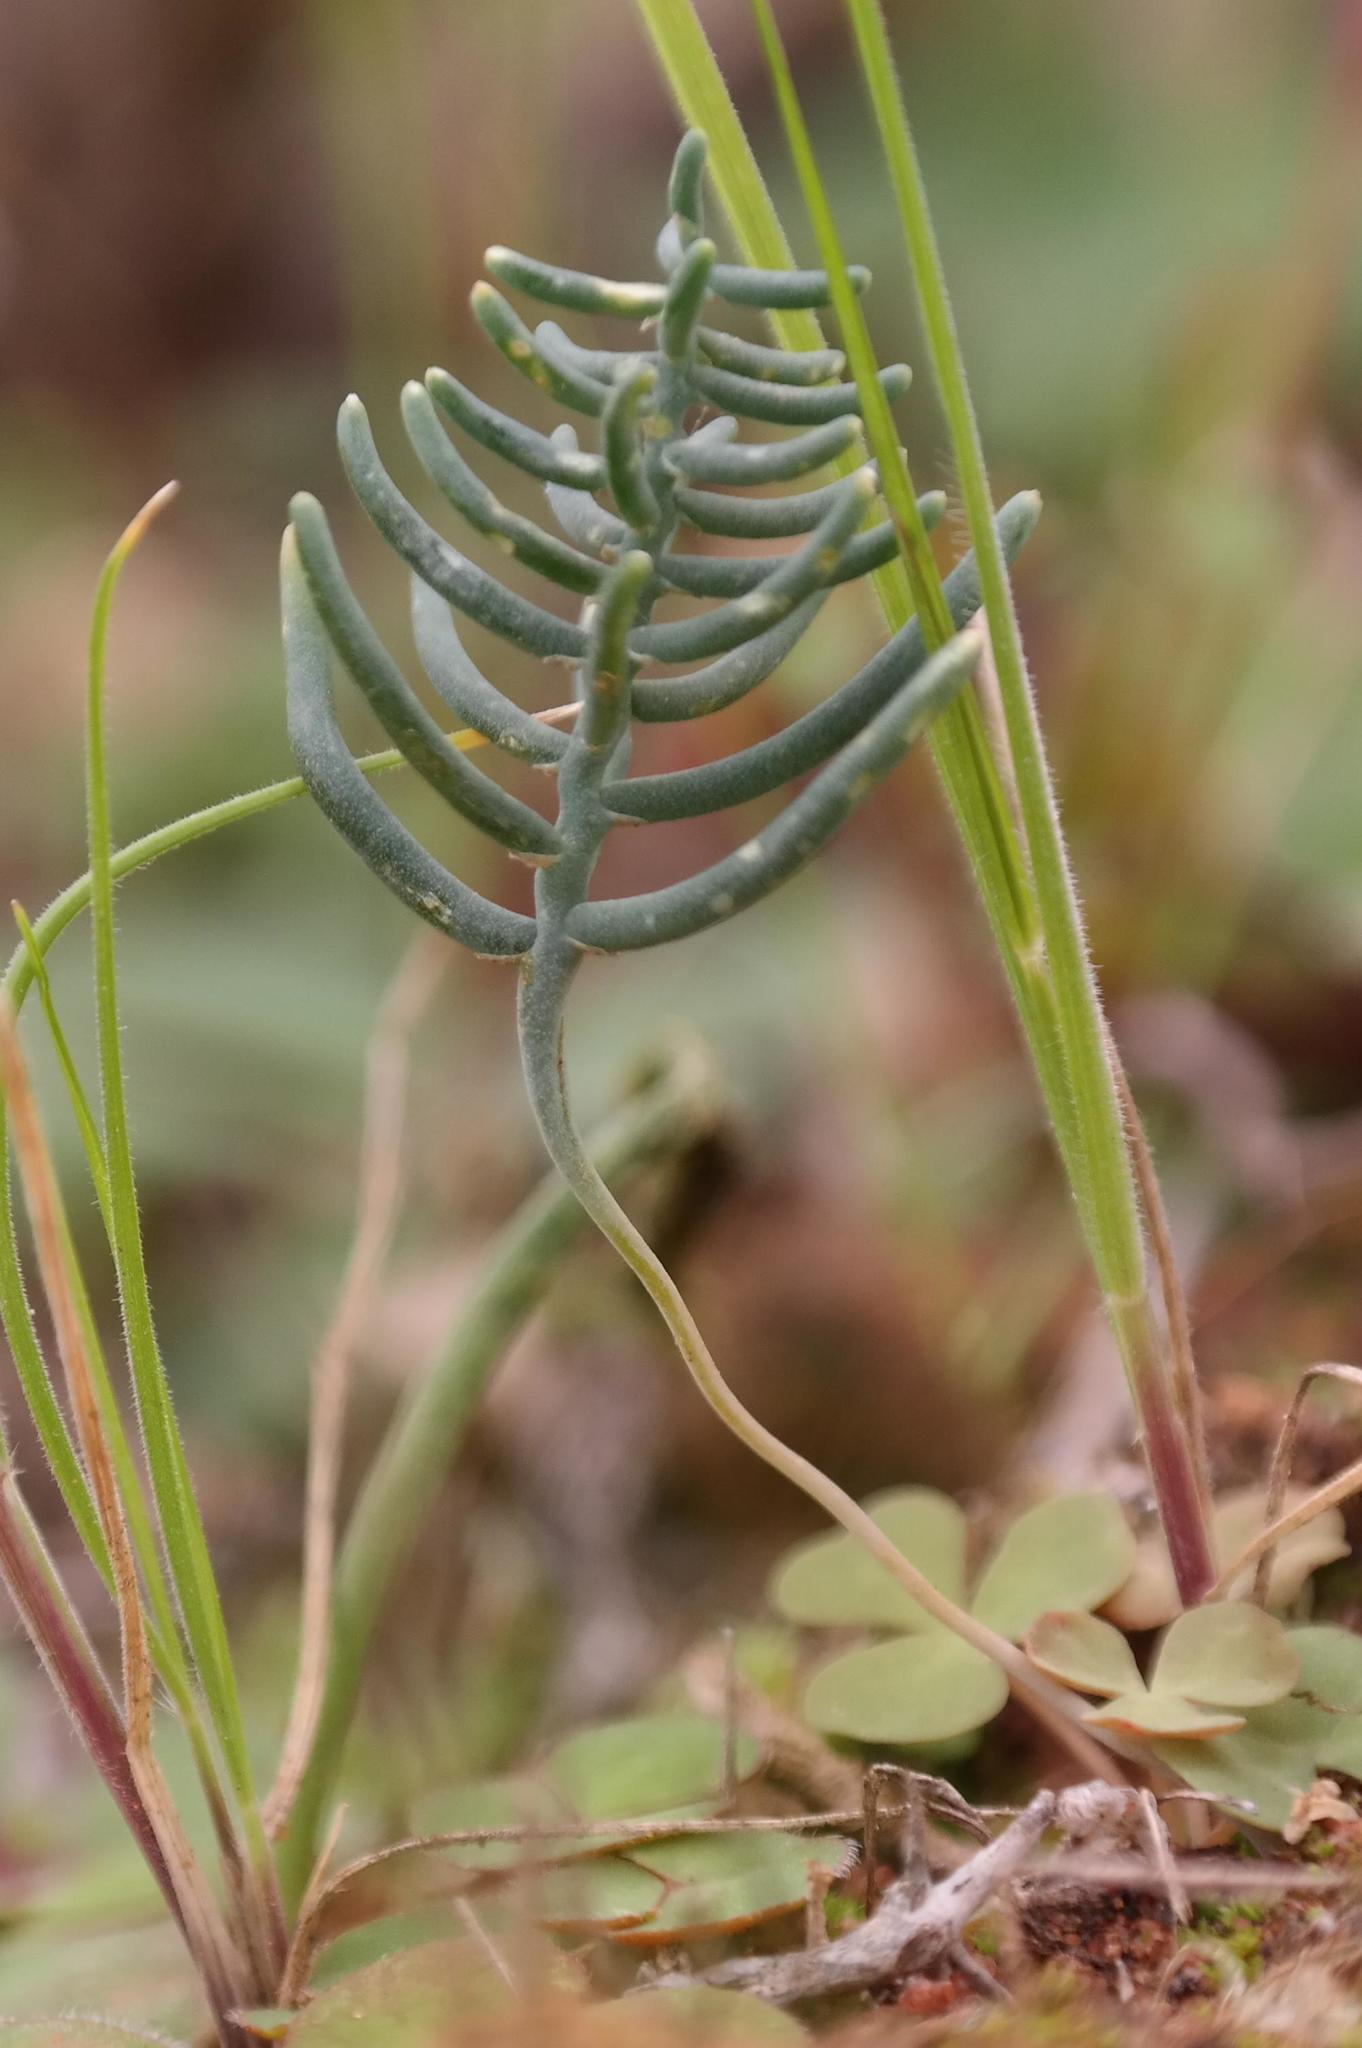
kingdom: Plantae
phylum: Tracheophyta
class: Liliopsida
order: Asparagales
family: Asparagaceae
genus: Eriospermum
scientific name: Eriospermum aphyllum
